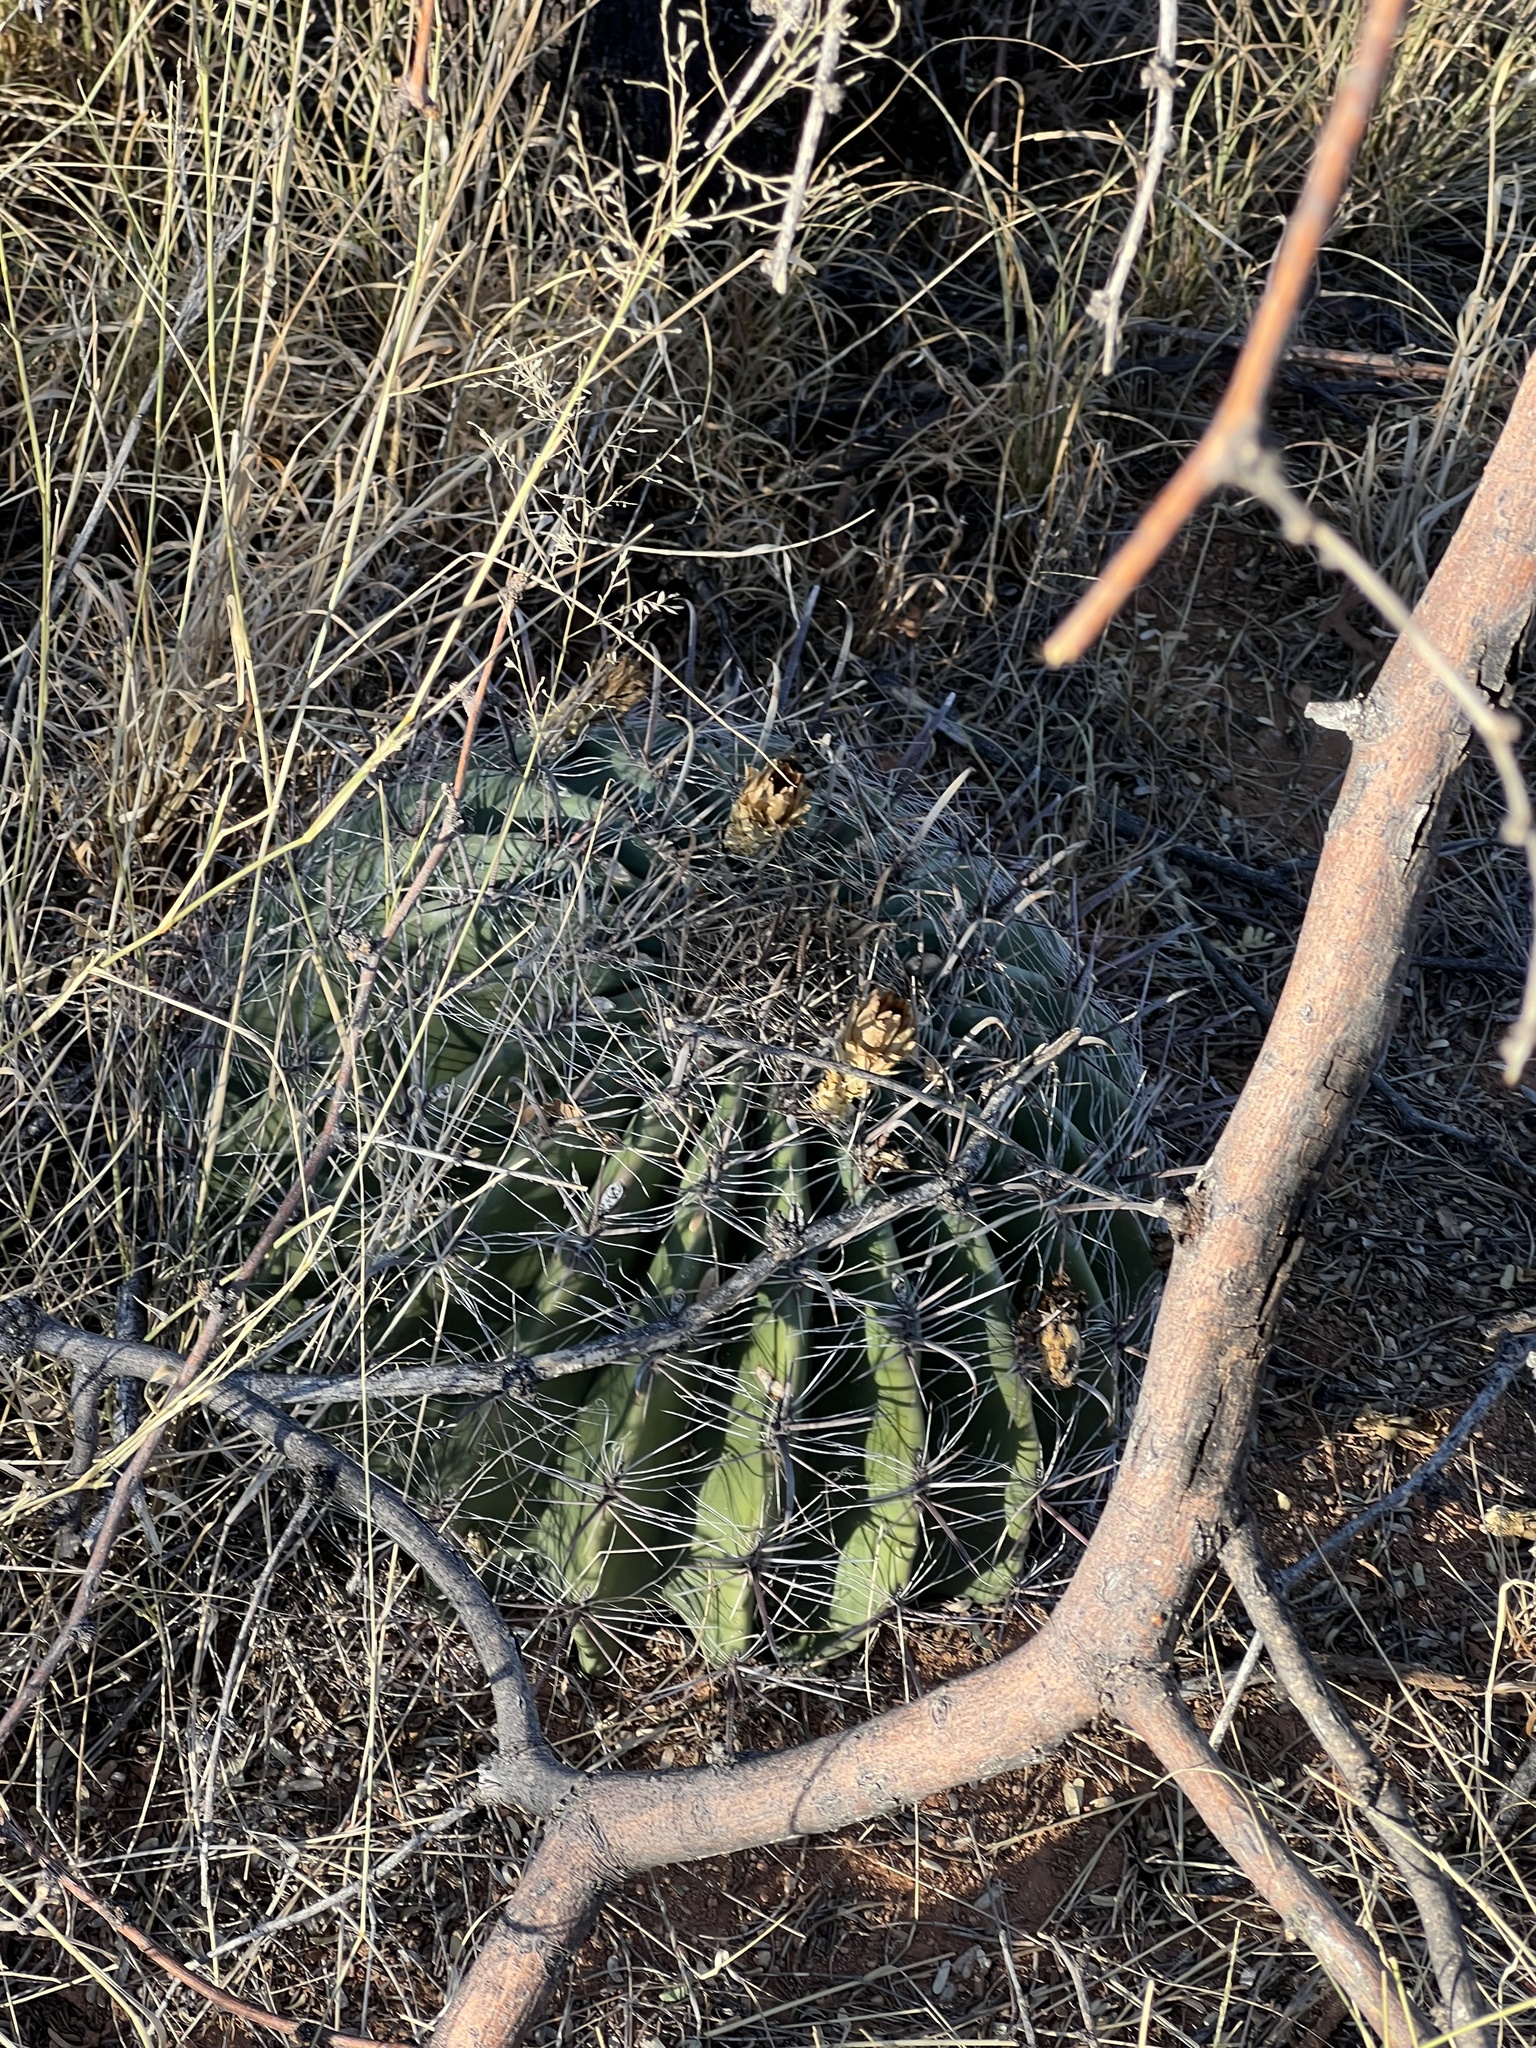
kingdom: Plantae
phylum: Tracheophyta
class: Magnoliopsida
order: Caryophyllales
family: Cactaceae
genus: Ferocactus
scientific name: Ferocactus wislizeni
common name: Candy barrel cactus
